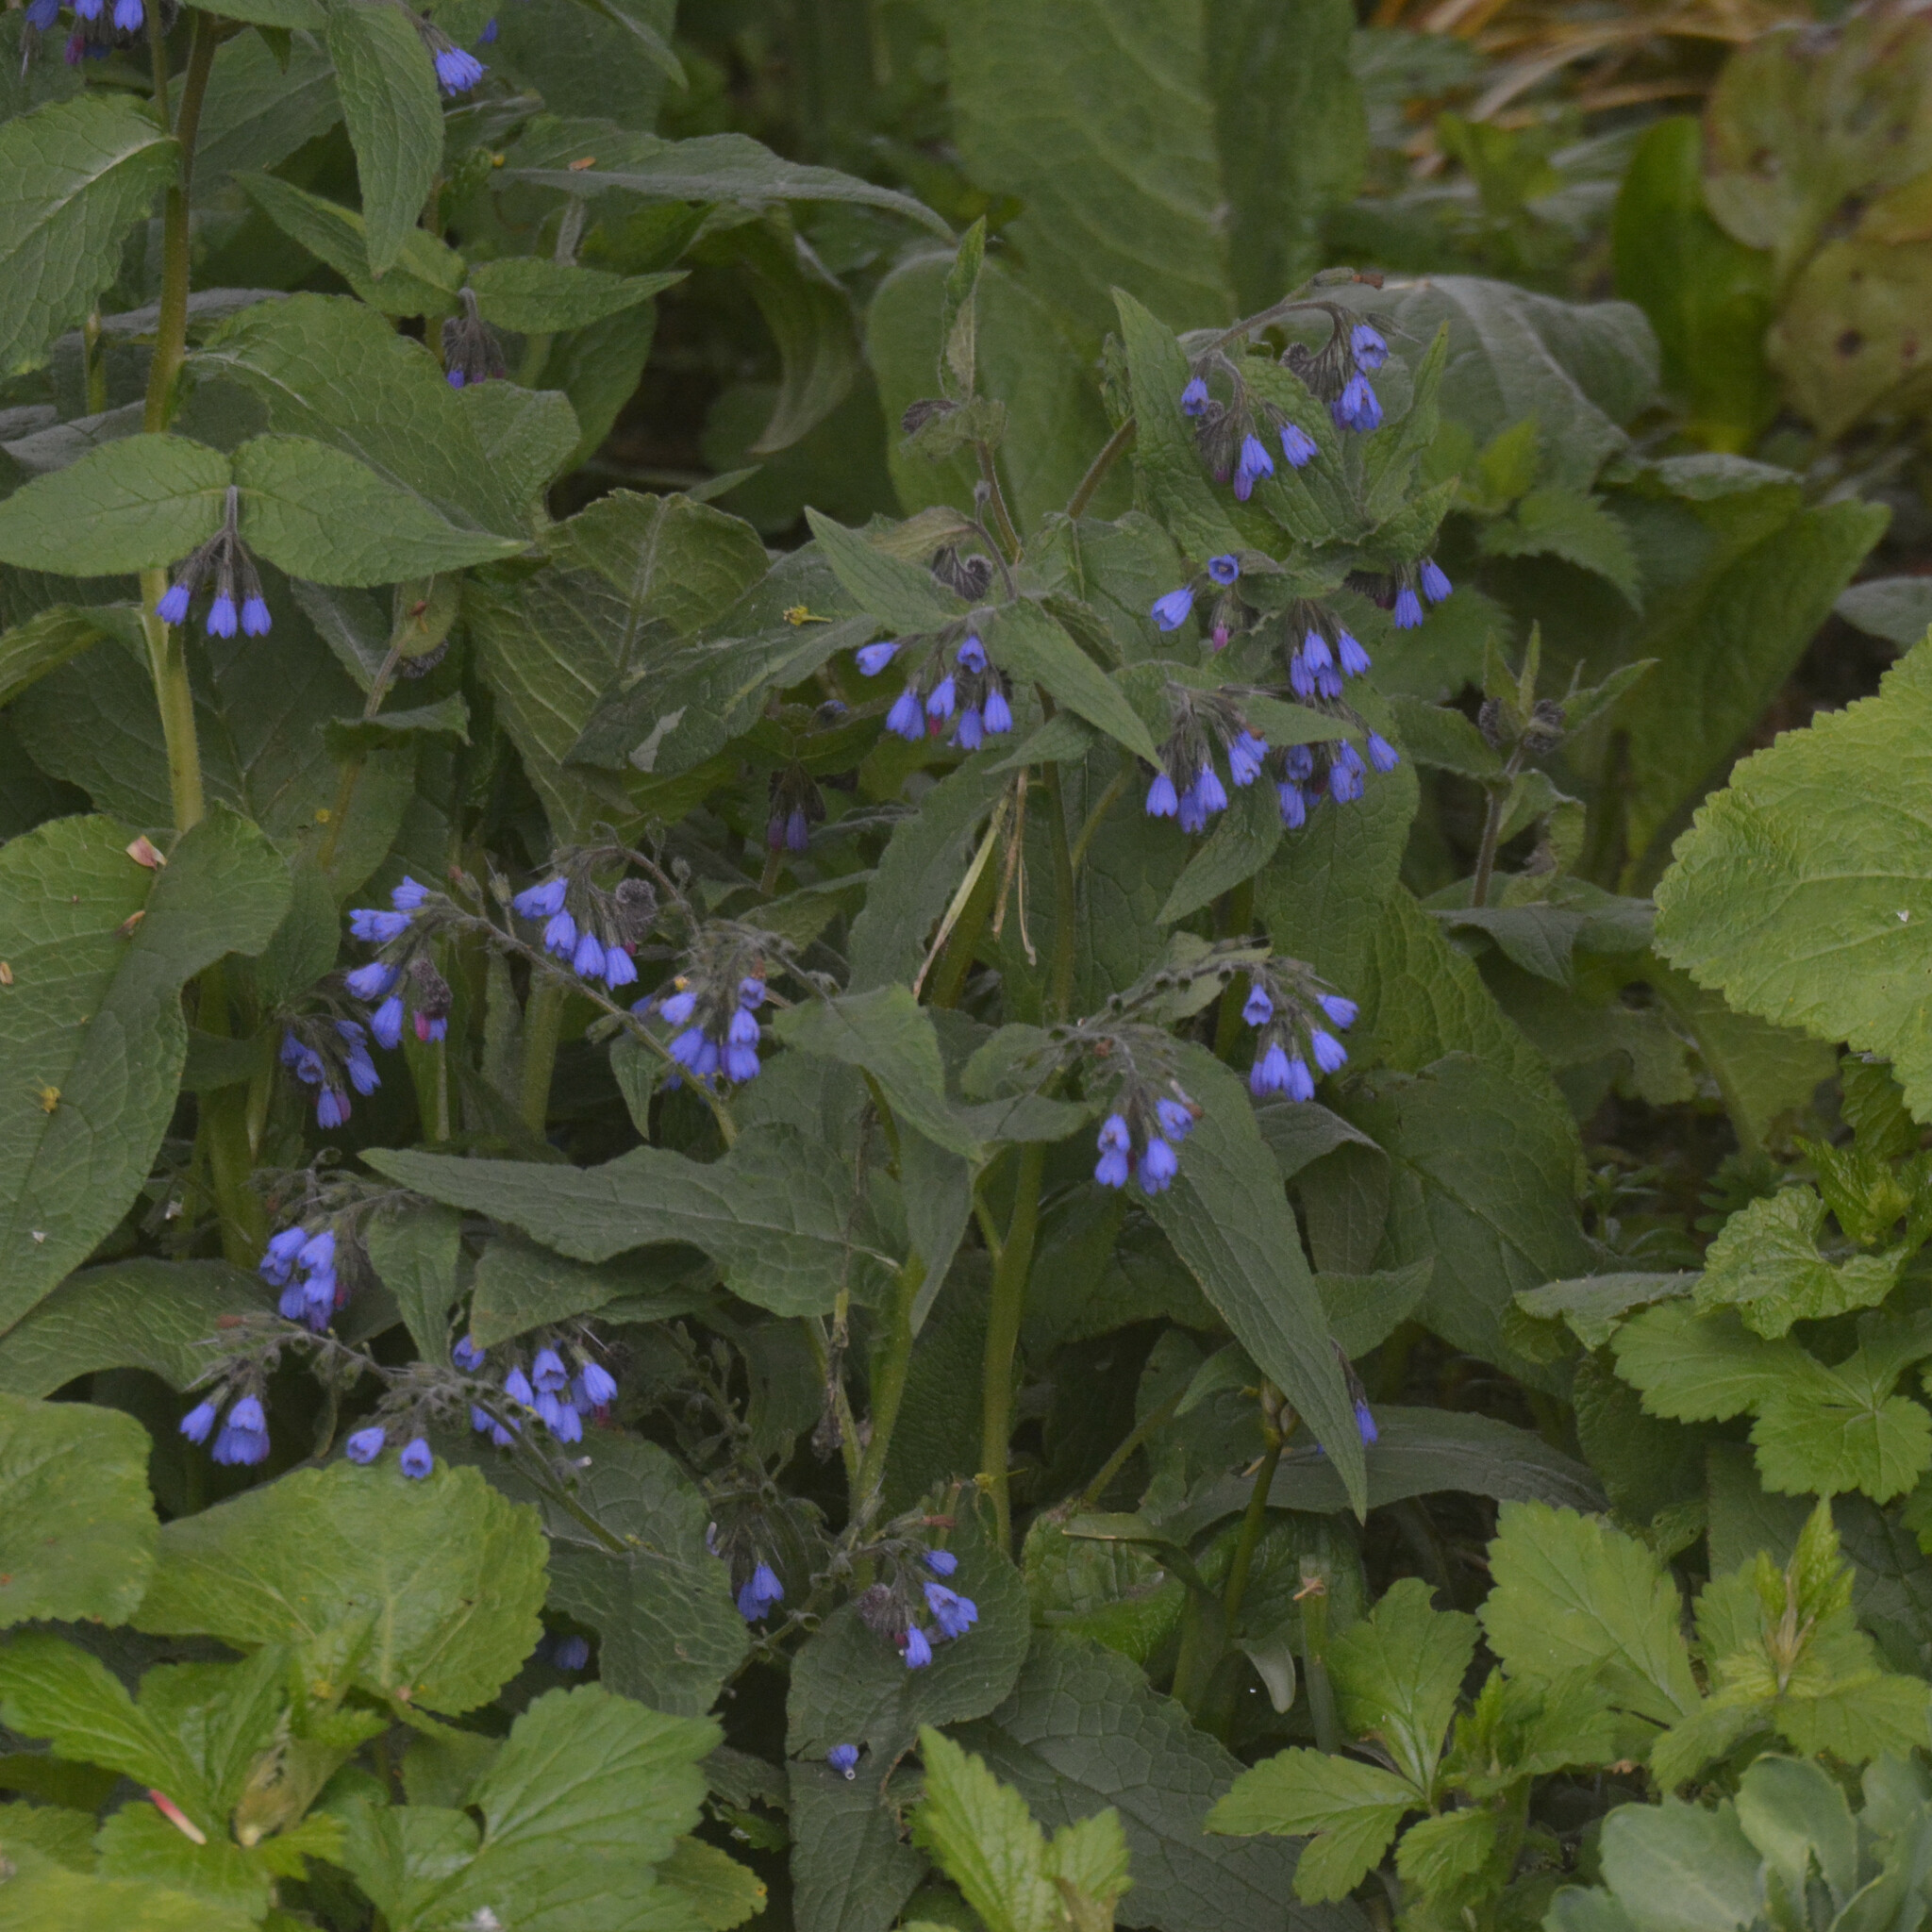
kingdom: Plantae
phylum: Tracheophyta
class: Magnoliopsida
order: Boraginales
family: Boraginaceae
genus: Symphytum
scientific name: Symphytum caucasicum
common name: Caucasian comfrey
